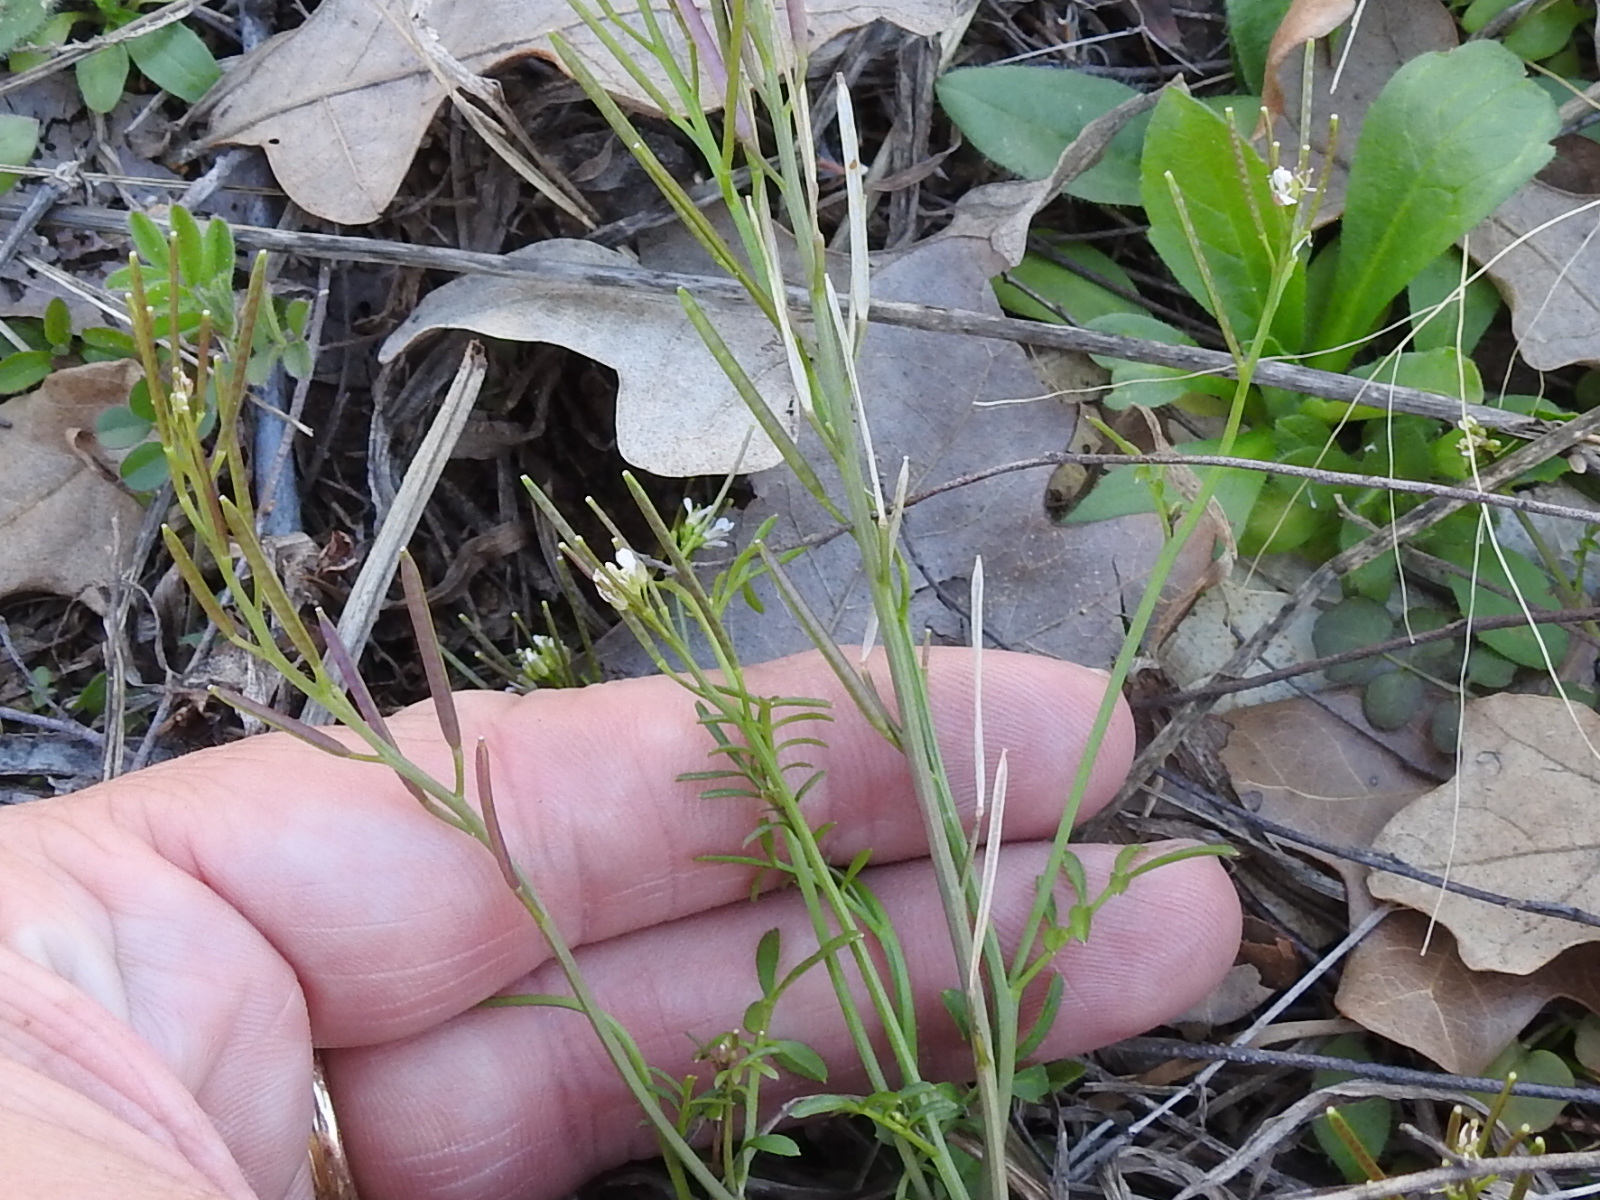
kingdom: Plantae
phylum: Tracheophyta
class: Magnoliopsida
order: Brassicales
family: Brassicaceae
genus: Cardamine
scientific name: Cardamine hirsuta
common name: Hairy bittercress
